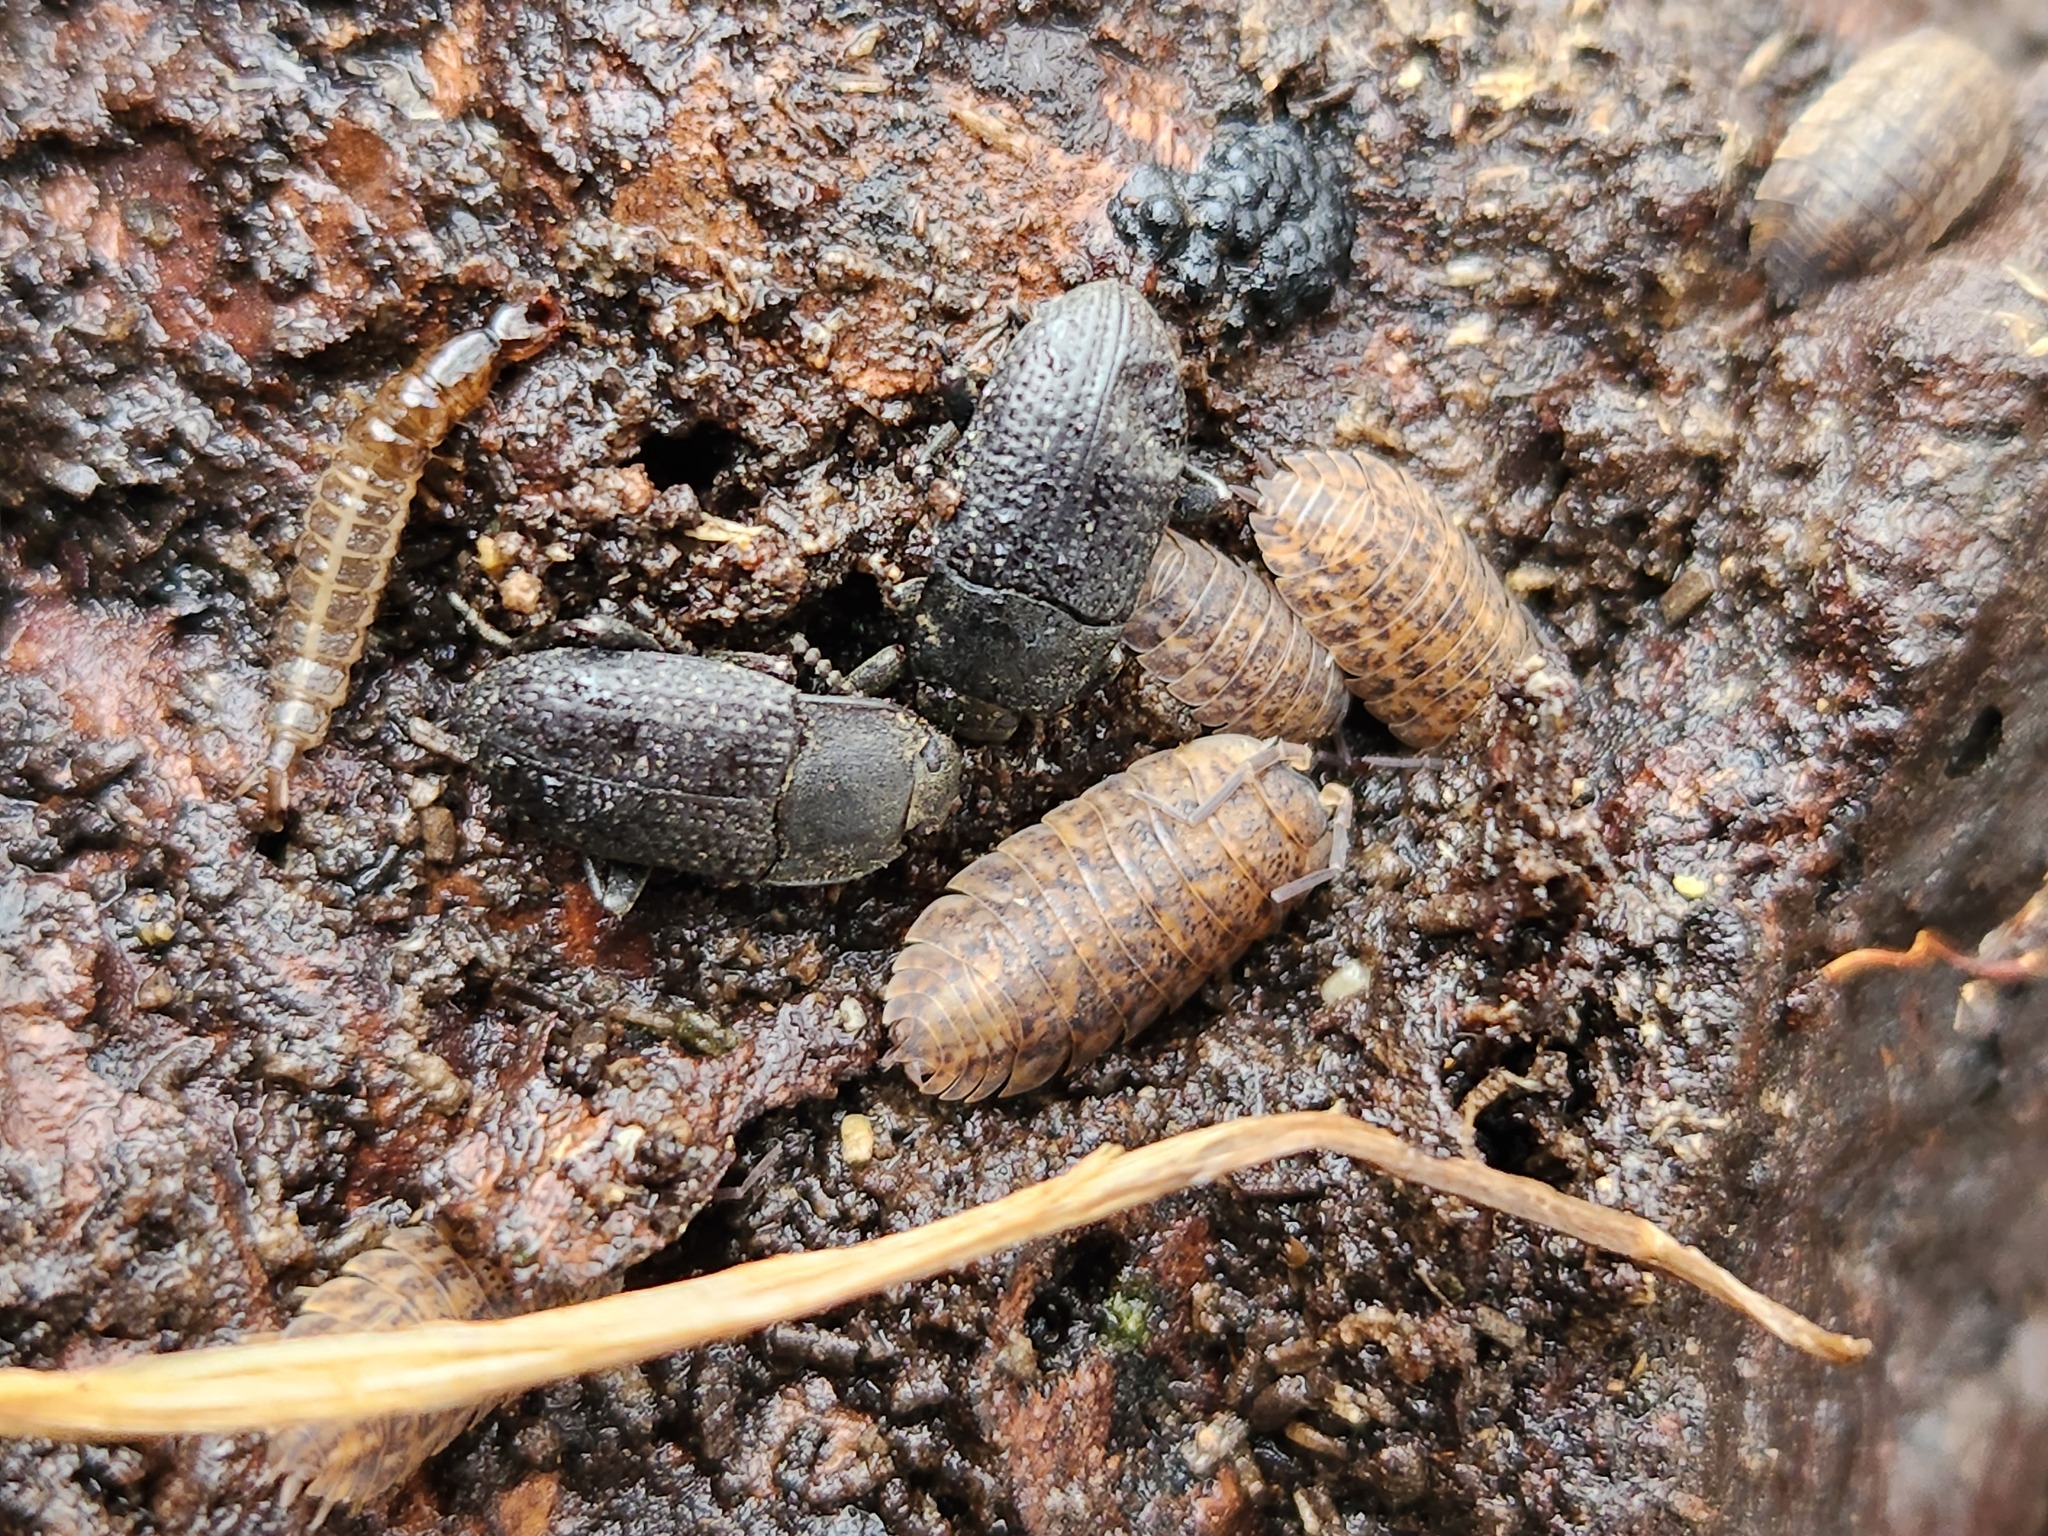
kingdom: Animalia
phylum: Arthropoda
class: Malacostraca
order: Isopoda
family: Trachelipodidae
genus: Trachelipus
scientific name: Trachelipus rathkii
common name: Isopod
